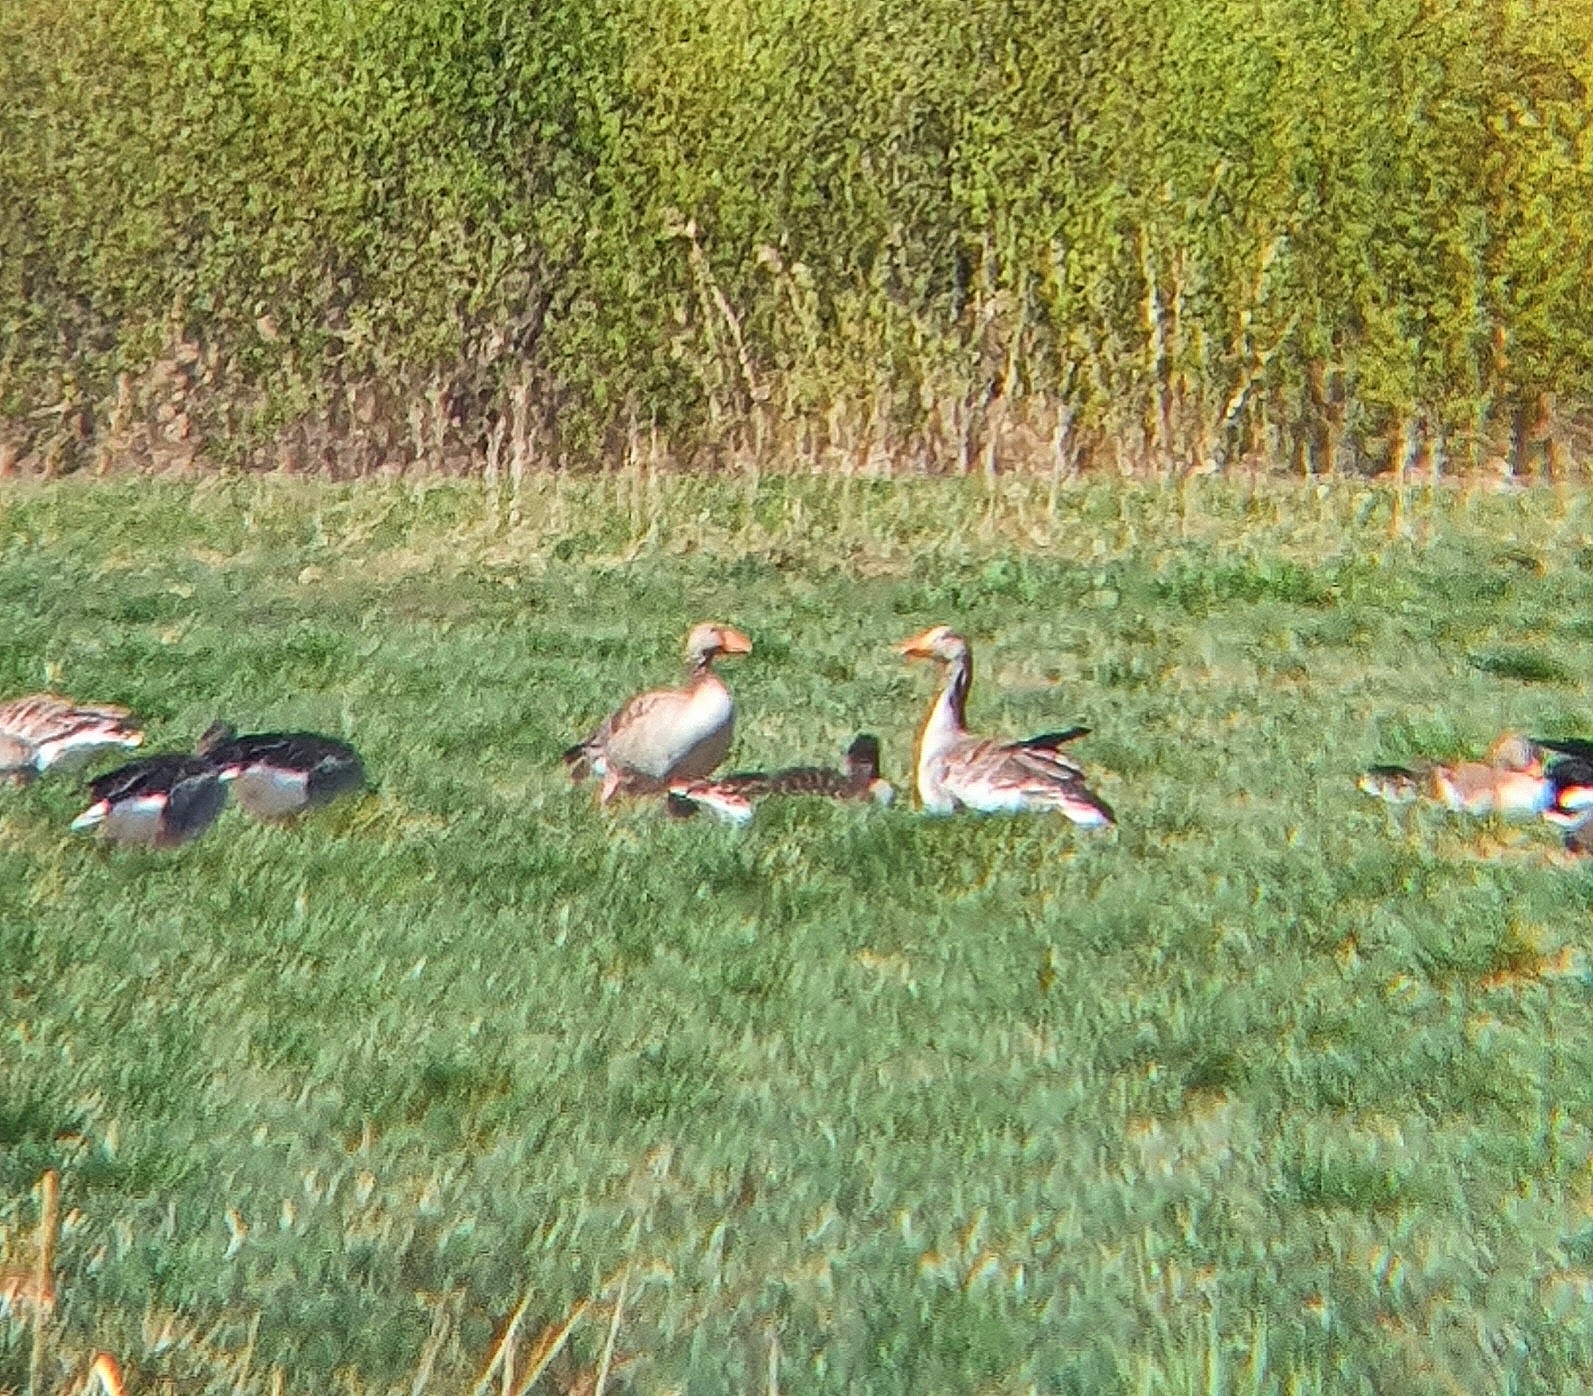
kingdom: Animalia
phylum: Chordata
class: Aves
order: Anseriformes
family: Anatidae
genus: Anser
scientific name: Anser anser
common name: Greylag goose
